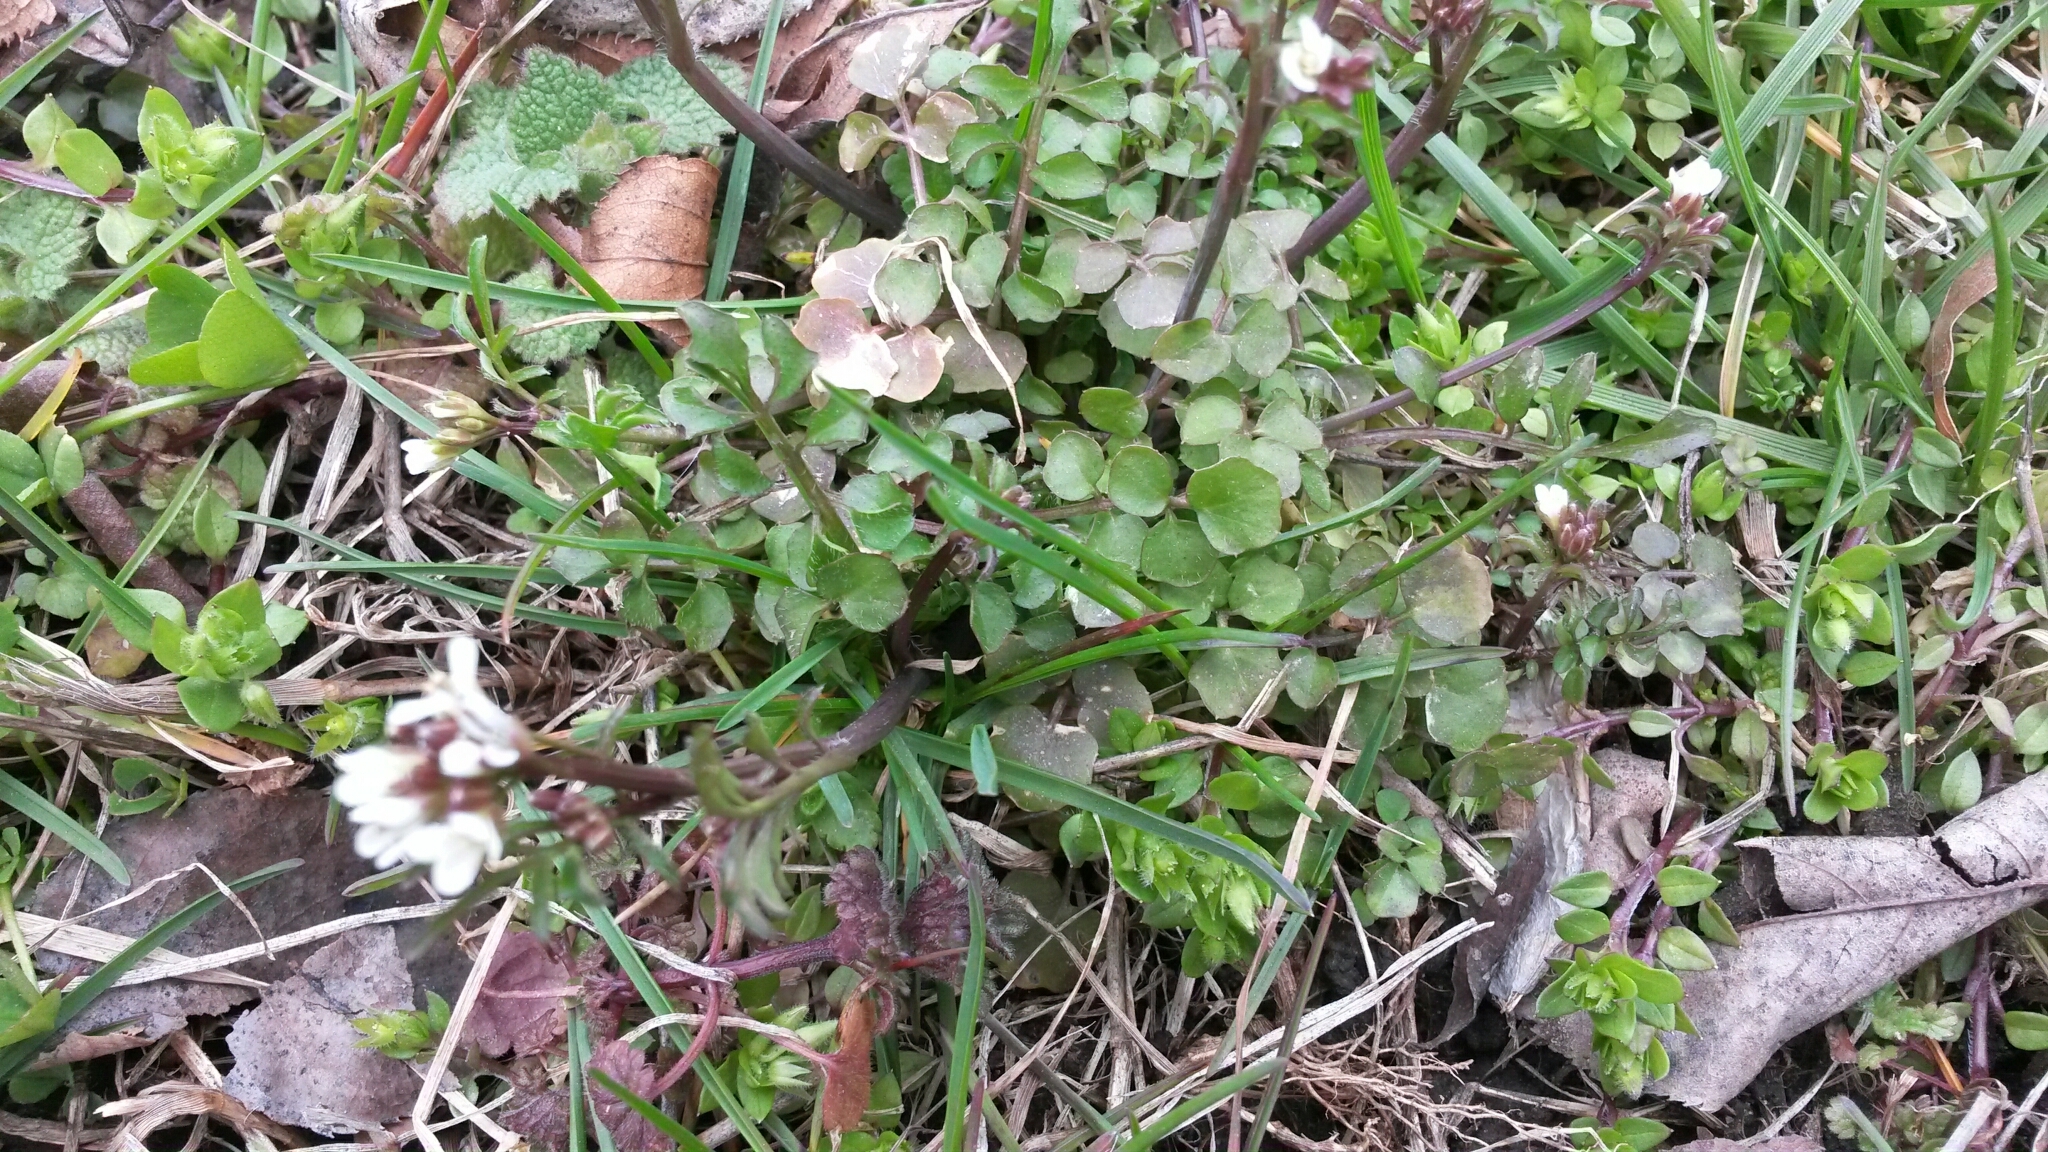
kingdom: Plantae
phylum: Tracheophyta
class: Magnoliopsida
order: Brassicales
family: Brassicaceae
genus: Cardamine
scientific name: Cardamine hirsuta
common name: Hairy bittercress
